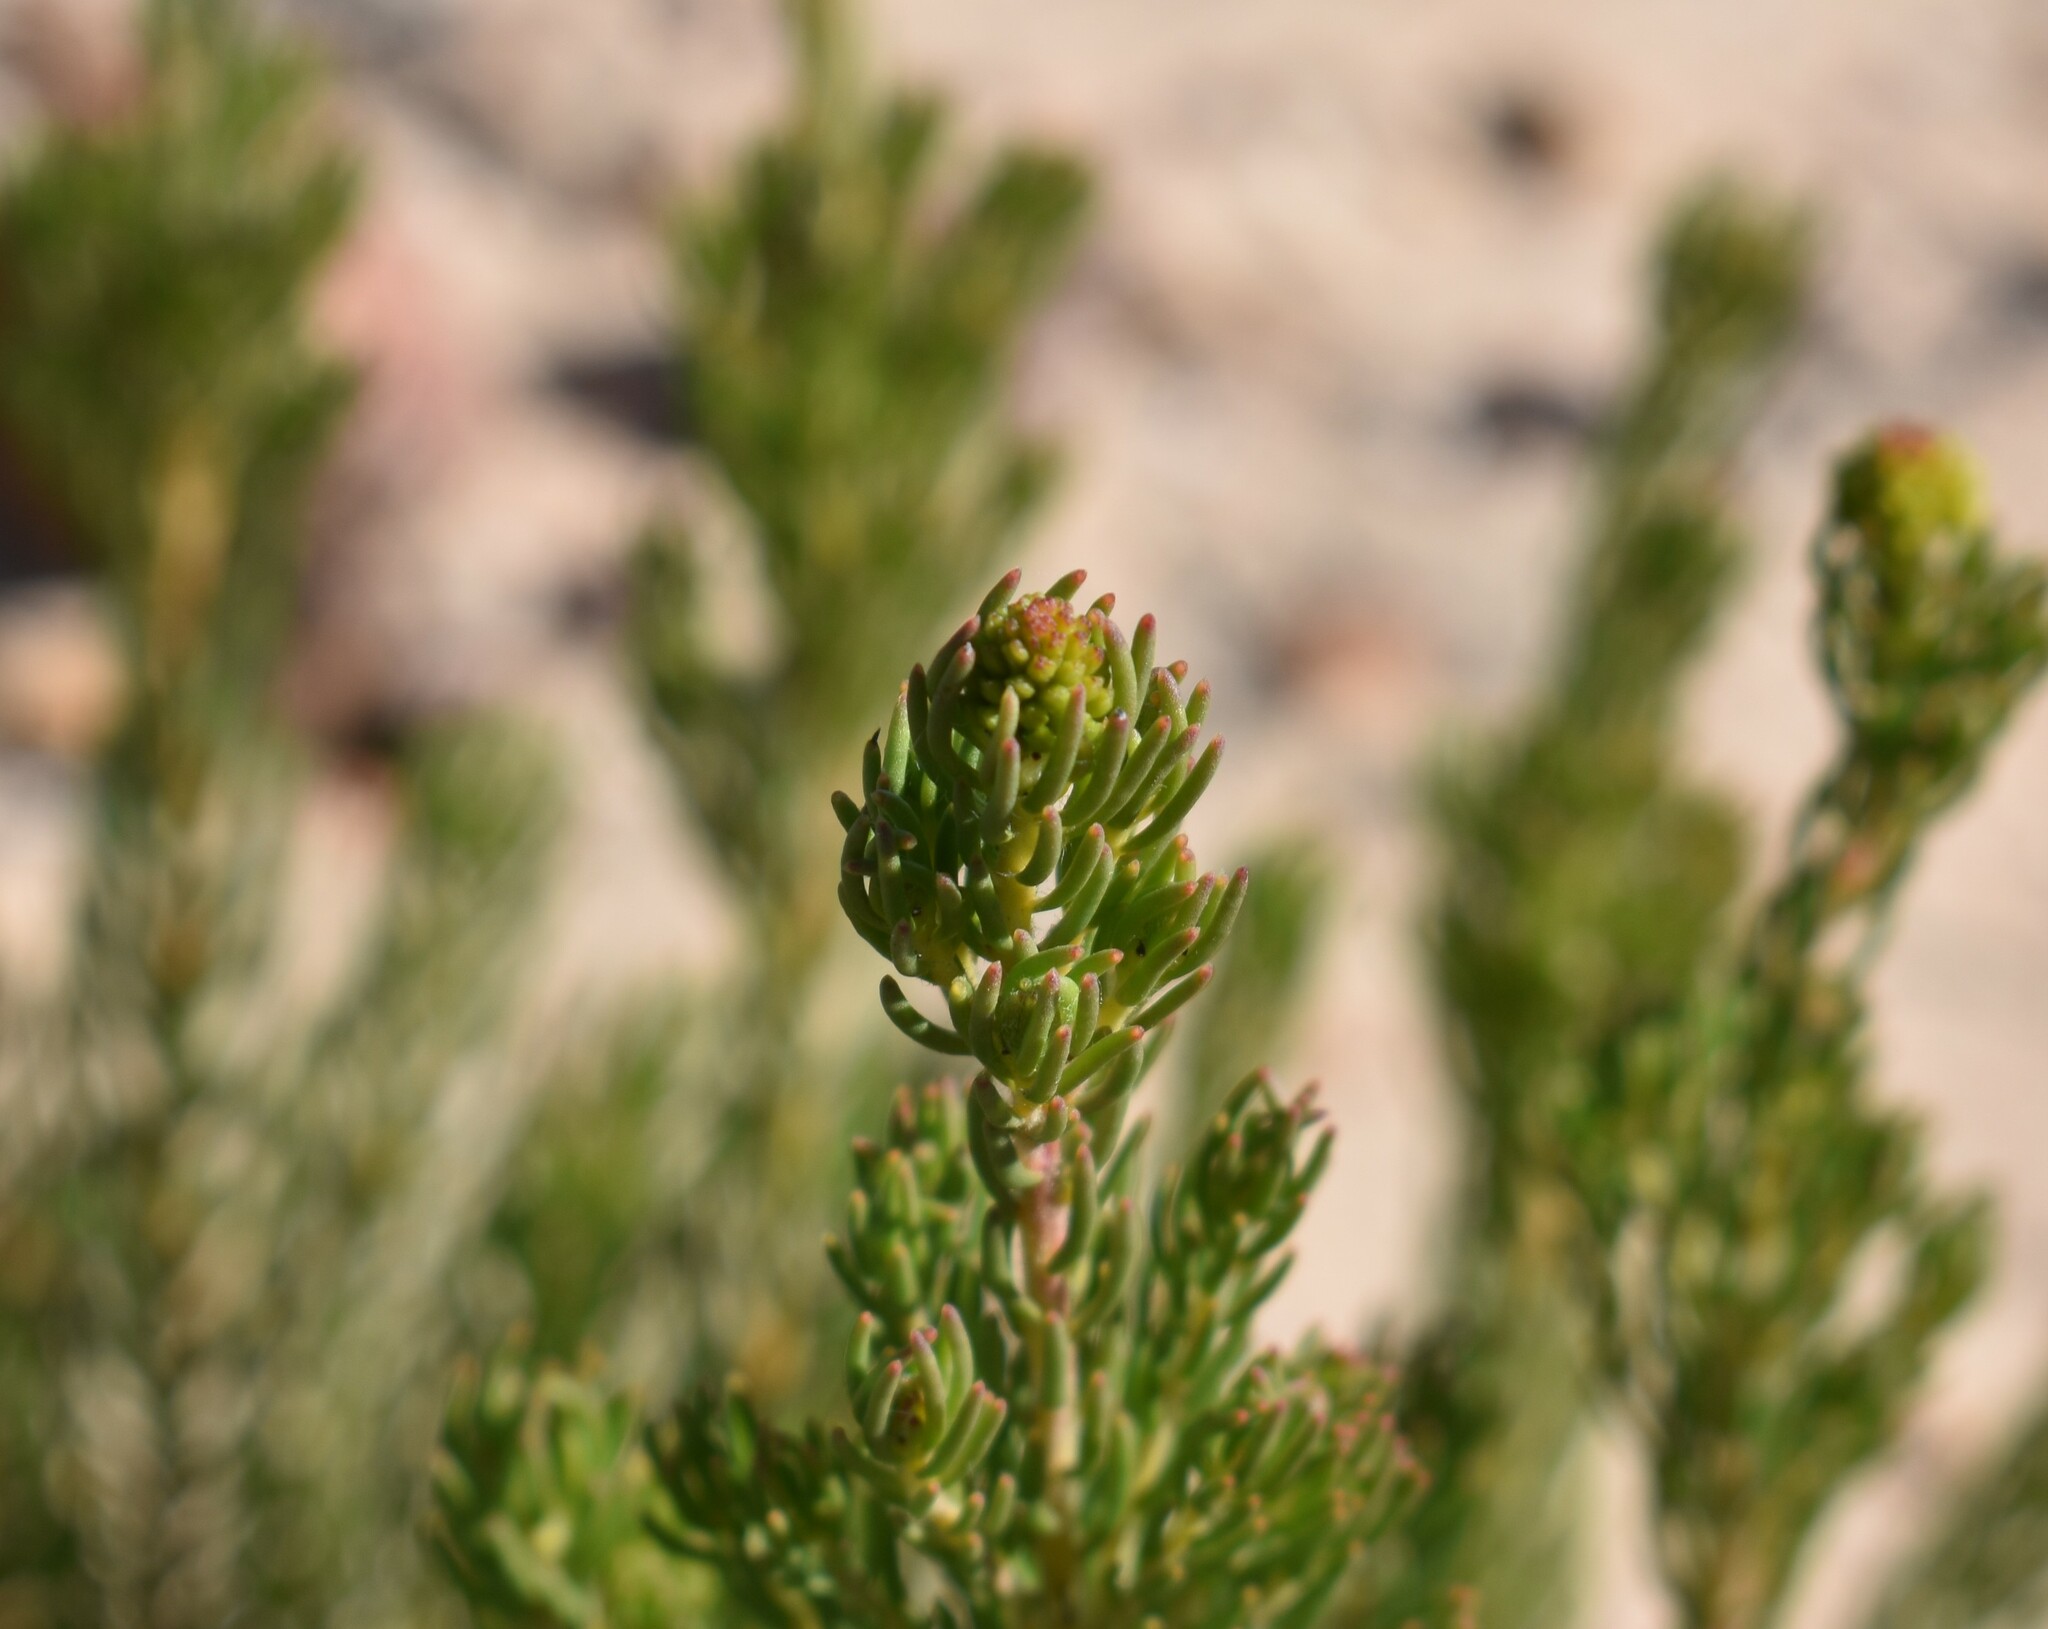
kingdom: Plantae
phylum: Tracheophyta
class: Magnoliopsida
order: Proteales
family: Proteaceae
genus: Leucadendron
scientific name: Leucadendron teretifolium
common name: Needle-leaf conebush
